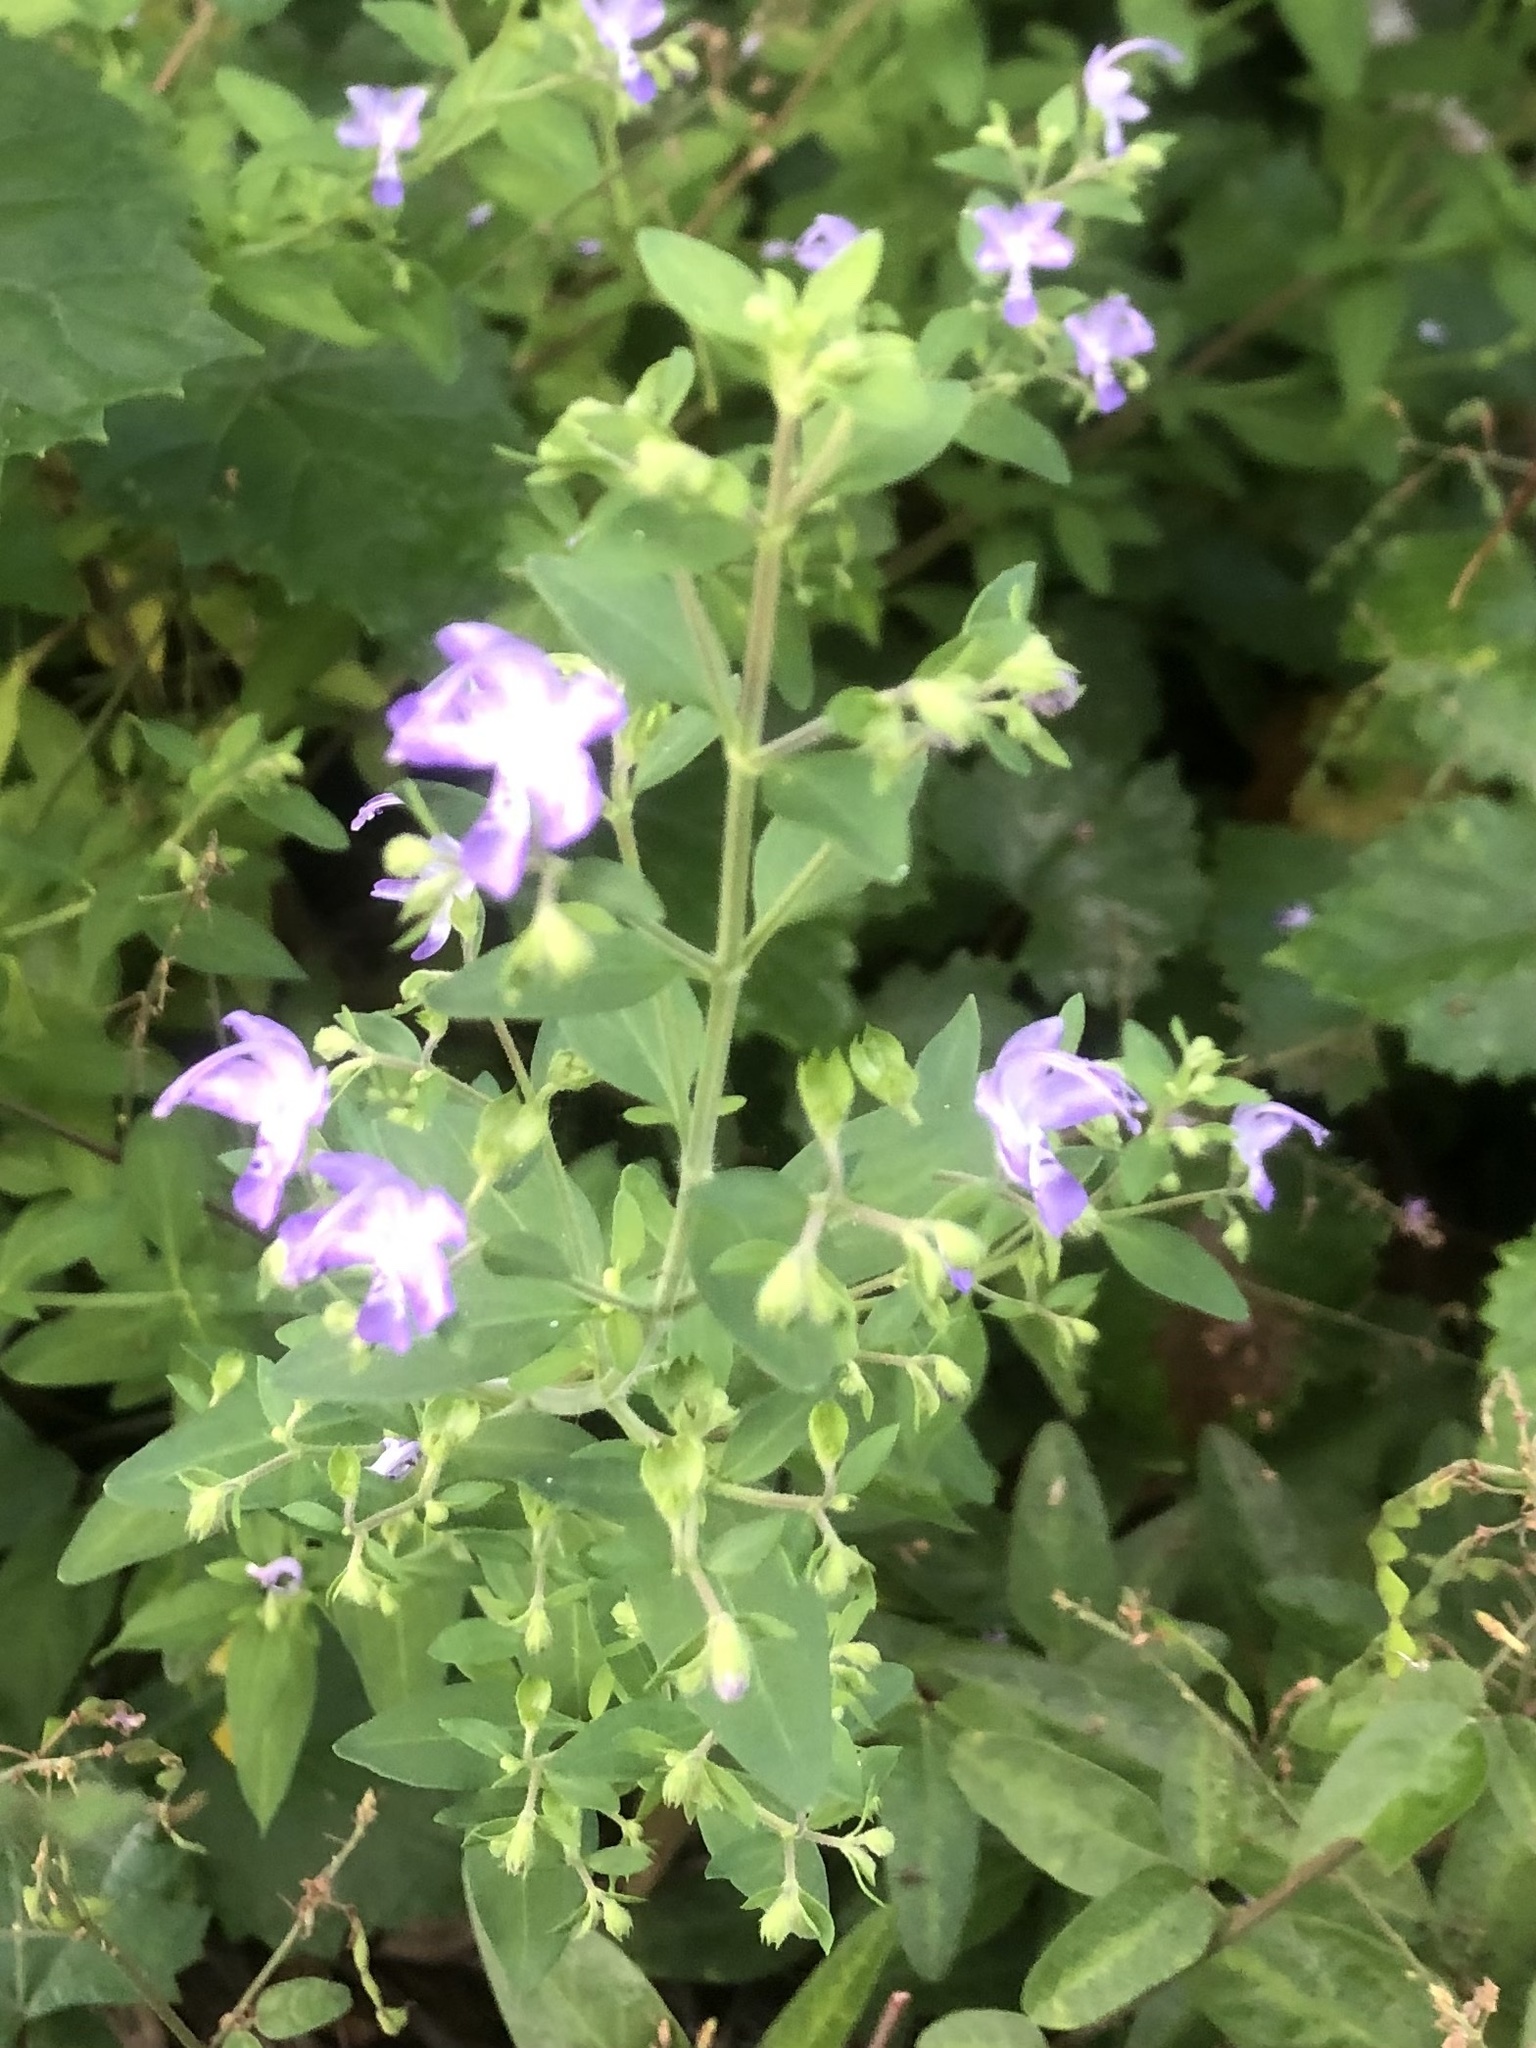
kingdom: Plantae
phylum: Tracheophyta
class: Magnoliopsida
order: Lamiales
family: Lamiaceae
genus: Trichostema
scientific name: Trichostema dichotomum
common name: Bastard pennyroyal
